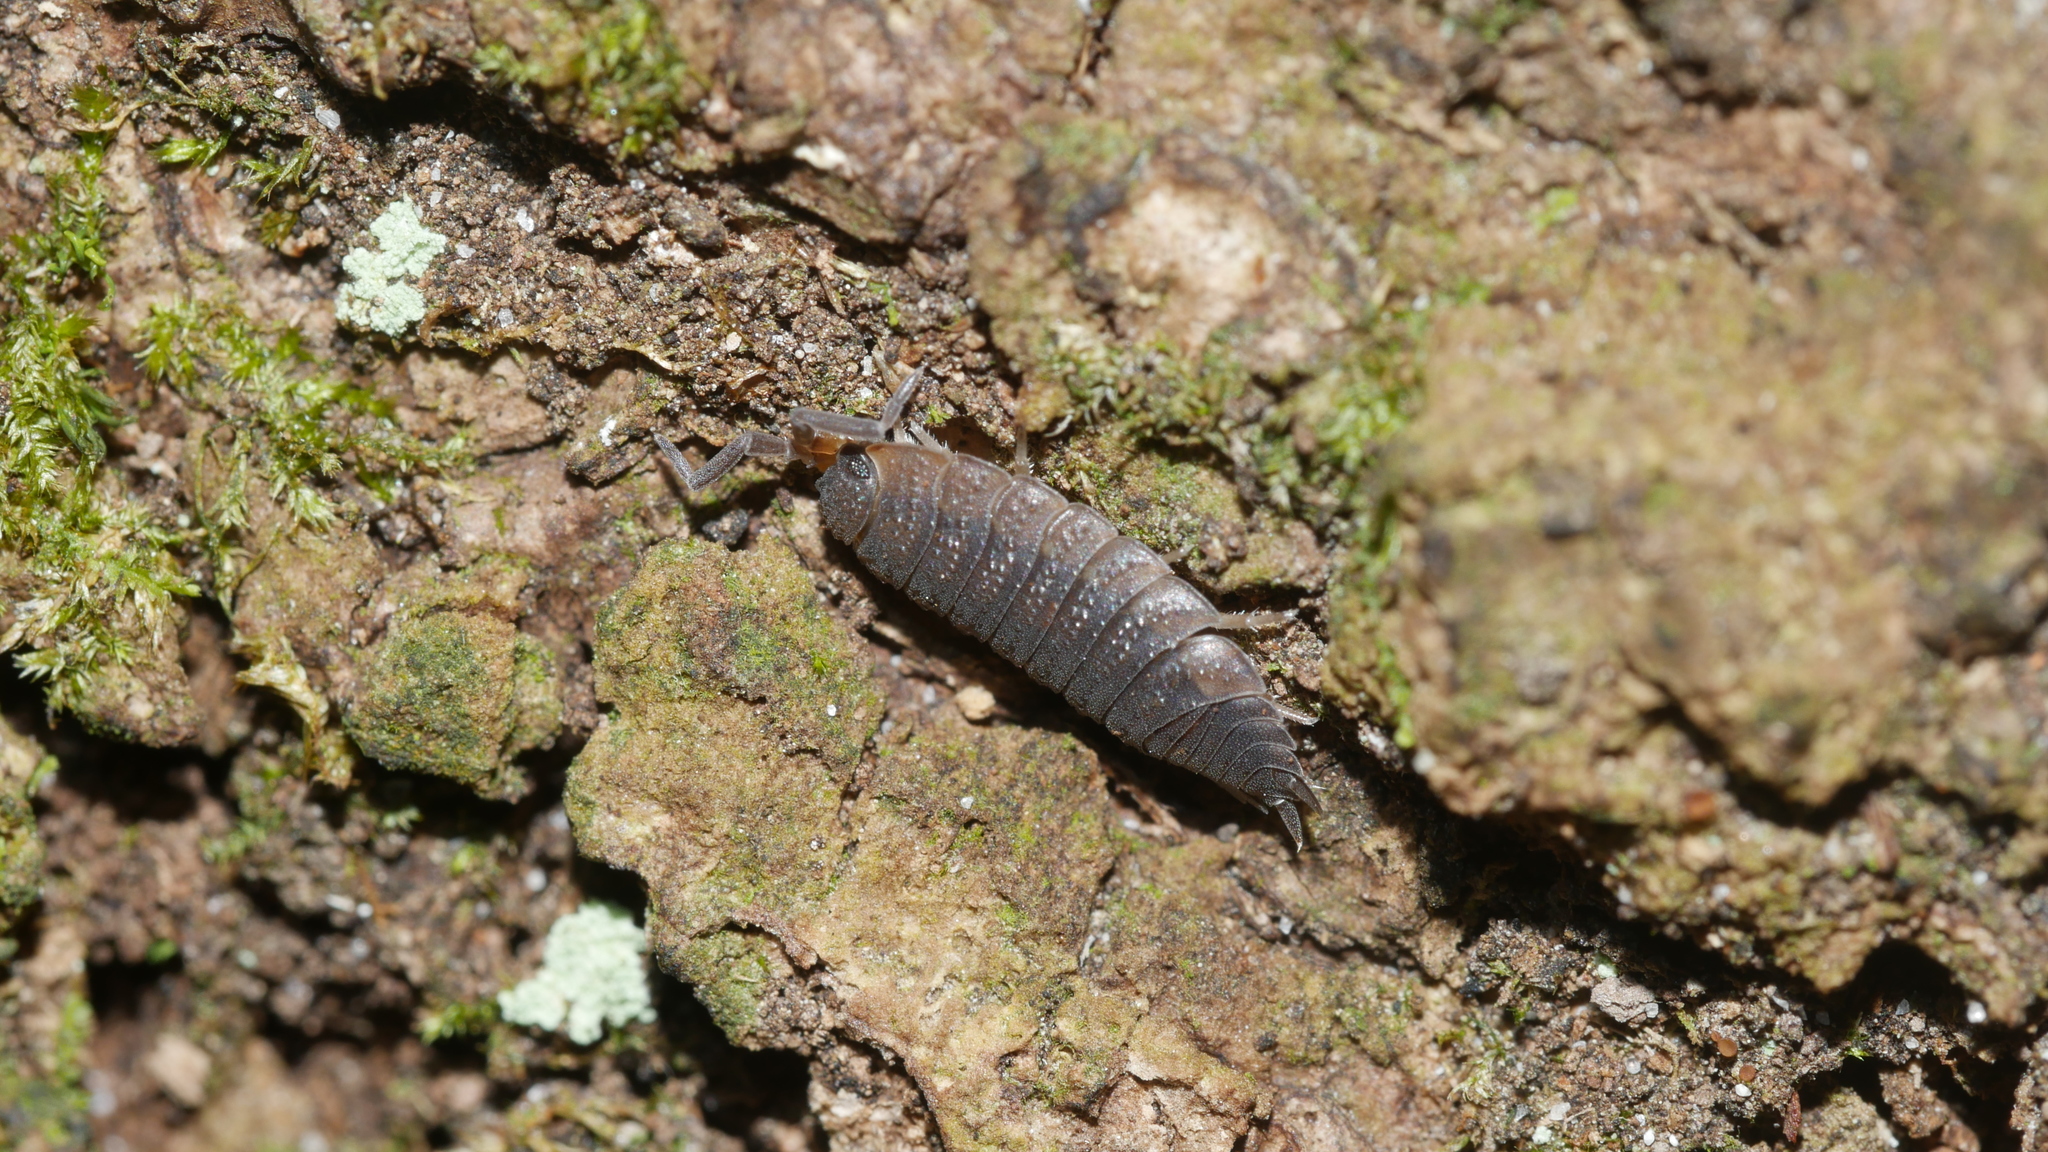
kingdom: Animalia
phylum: Arthropoda
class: Malacostraca
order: Isopoda
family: Porcellionidae
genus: Porcellio
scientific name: Porcellio scaber
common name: Common rough woodlouse
